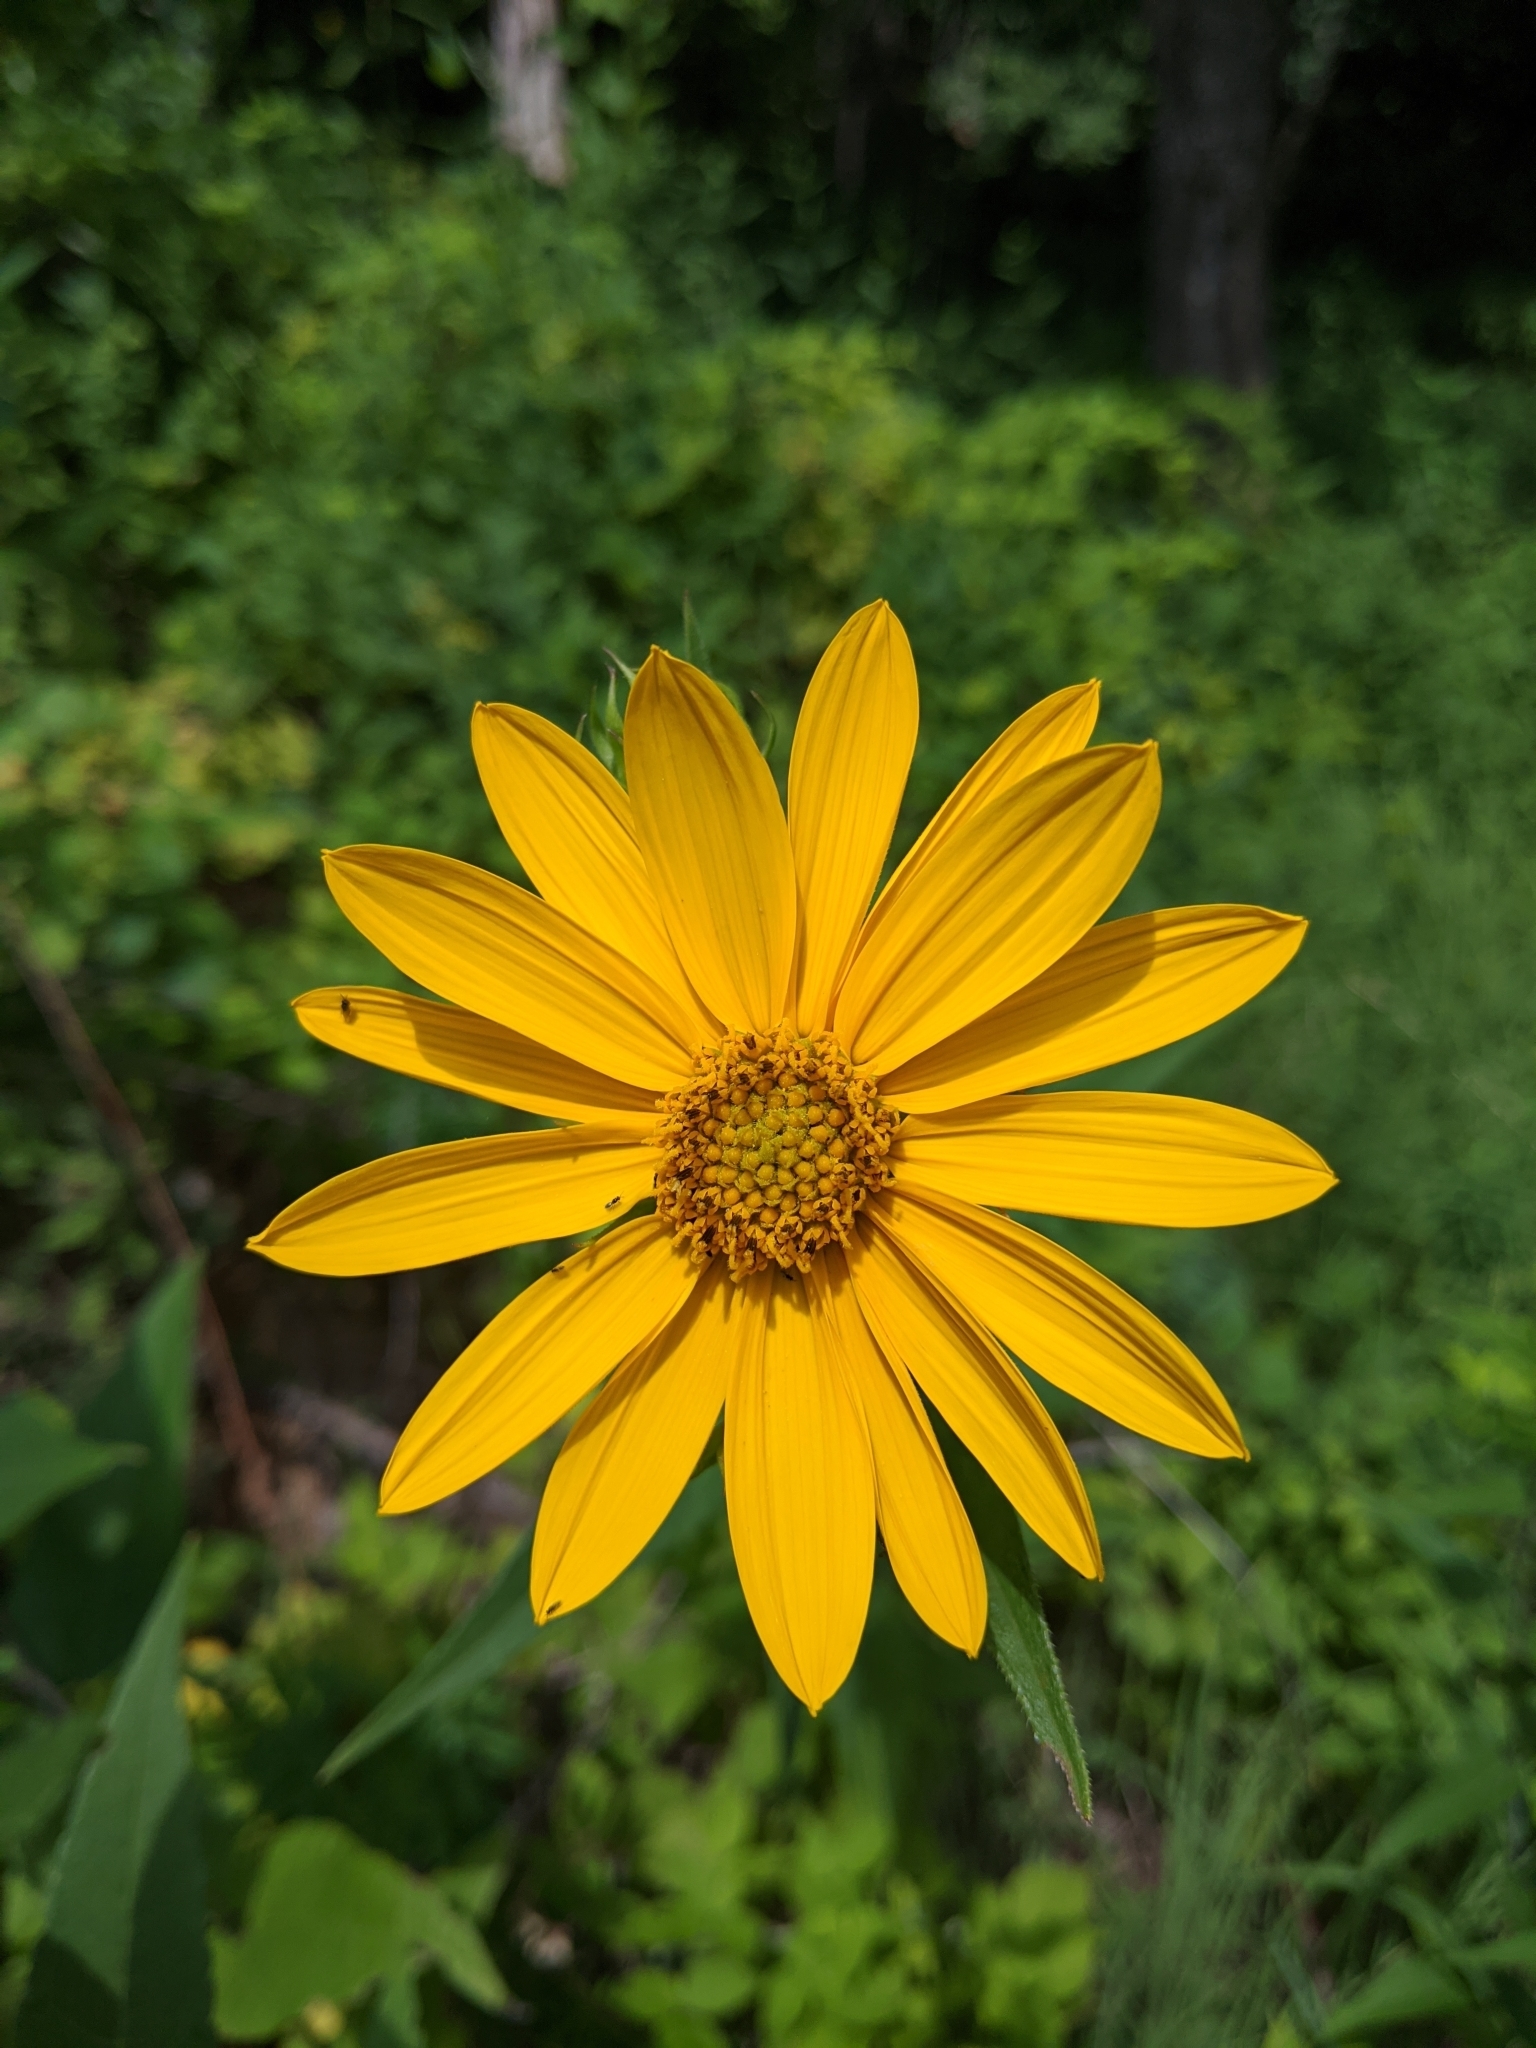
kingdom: Plantae
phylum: Tracheophyta
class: Magnoliopsida
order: Asterales
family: Asteraceae
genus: Helianthus
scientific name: Helianthus hirsutus
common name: Hairy sunflower
